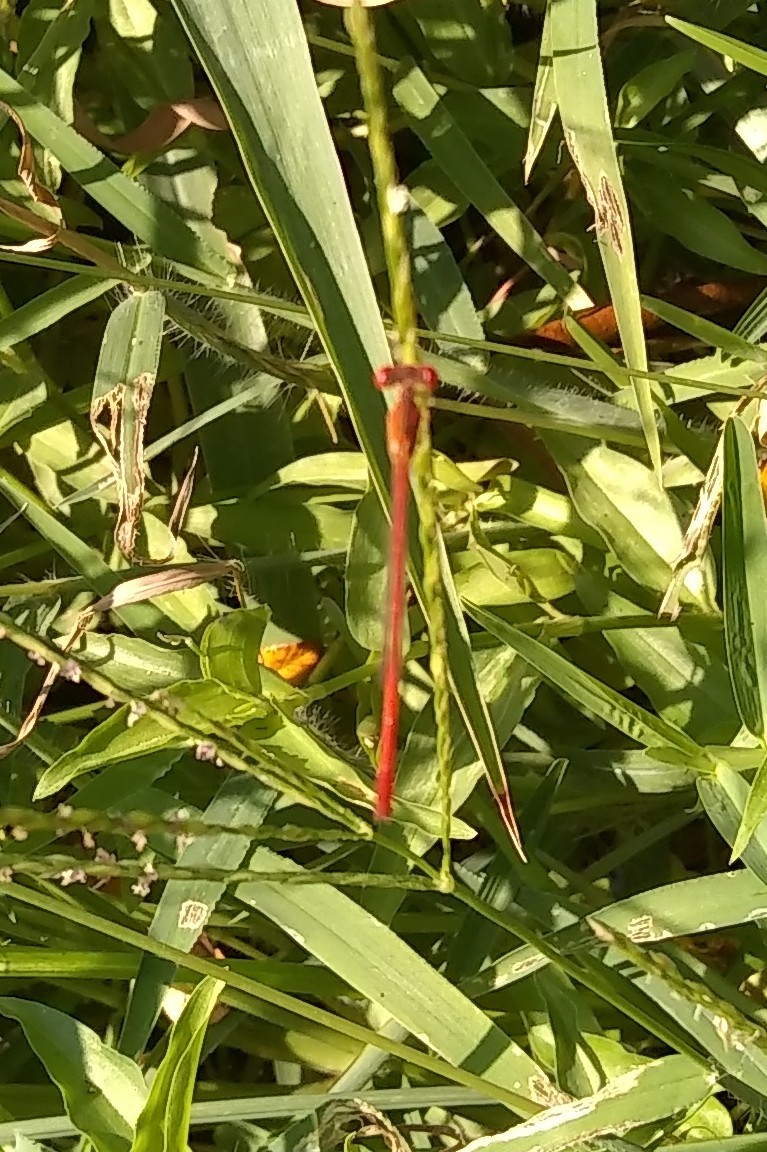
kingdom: Animalia
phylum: Arthropoda
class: Insecta
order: Odonata
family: Coenagrionidae
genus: Telebasis
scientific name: Telebasis salva
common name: Desert firetail
